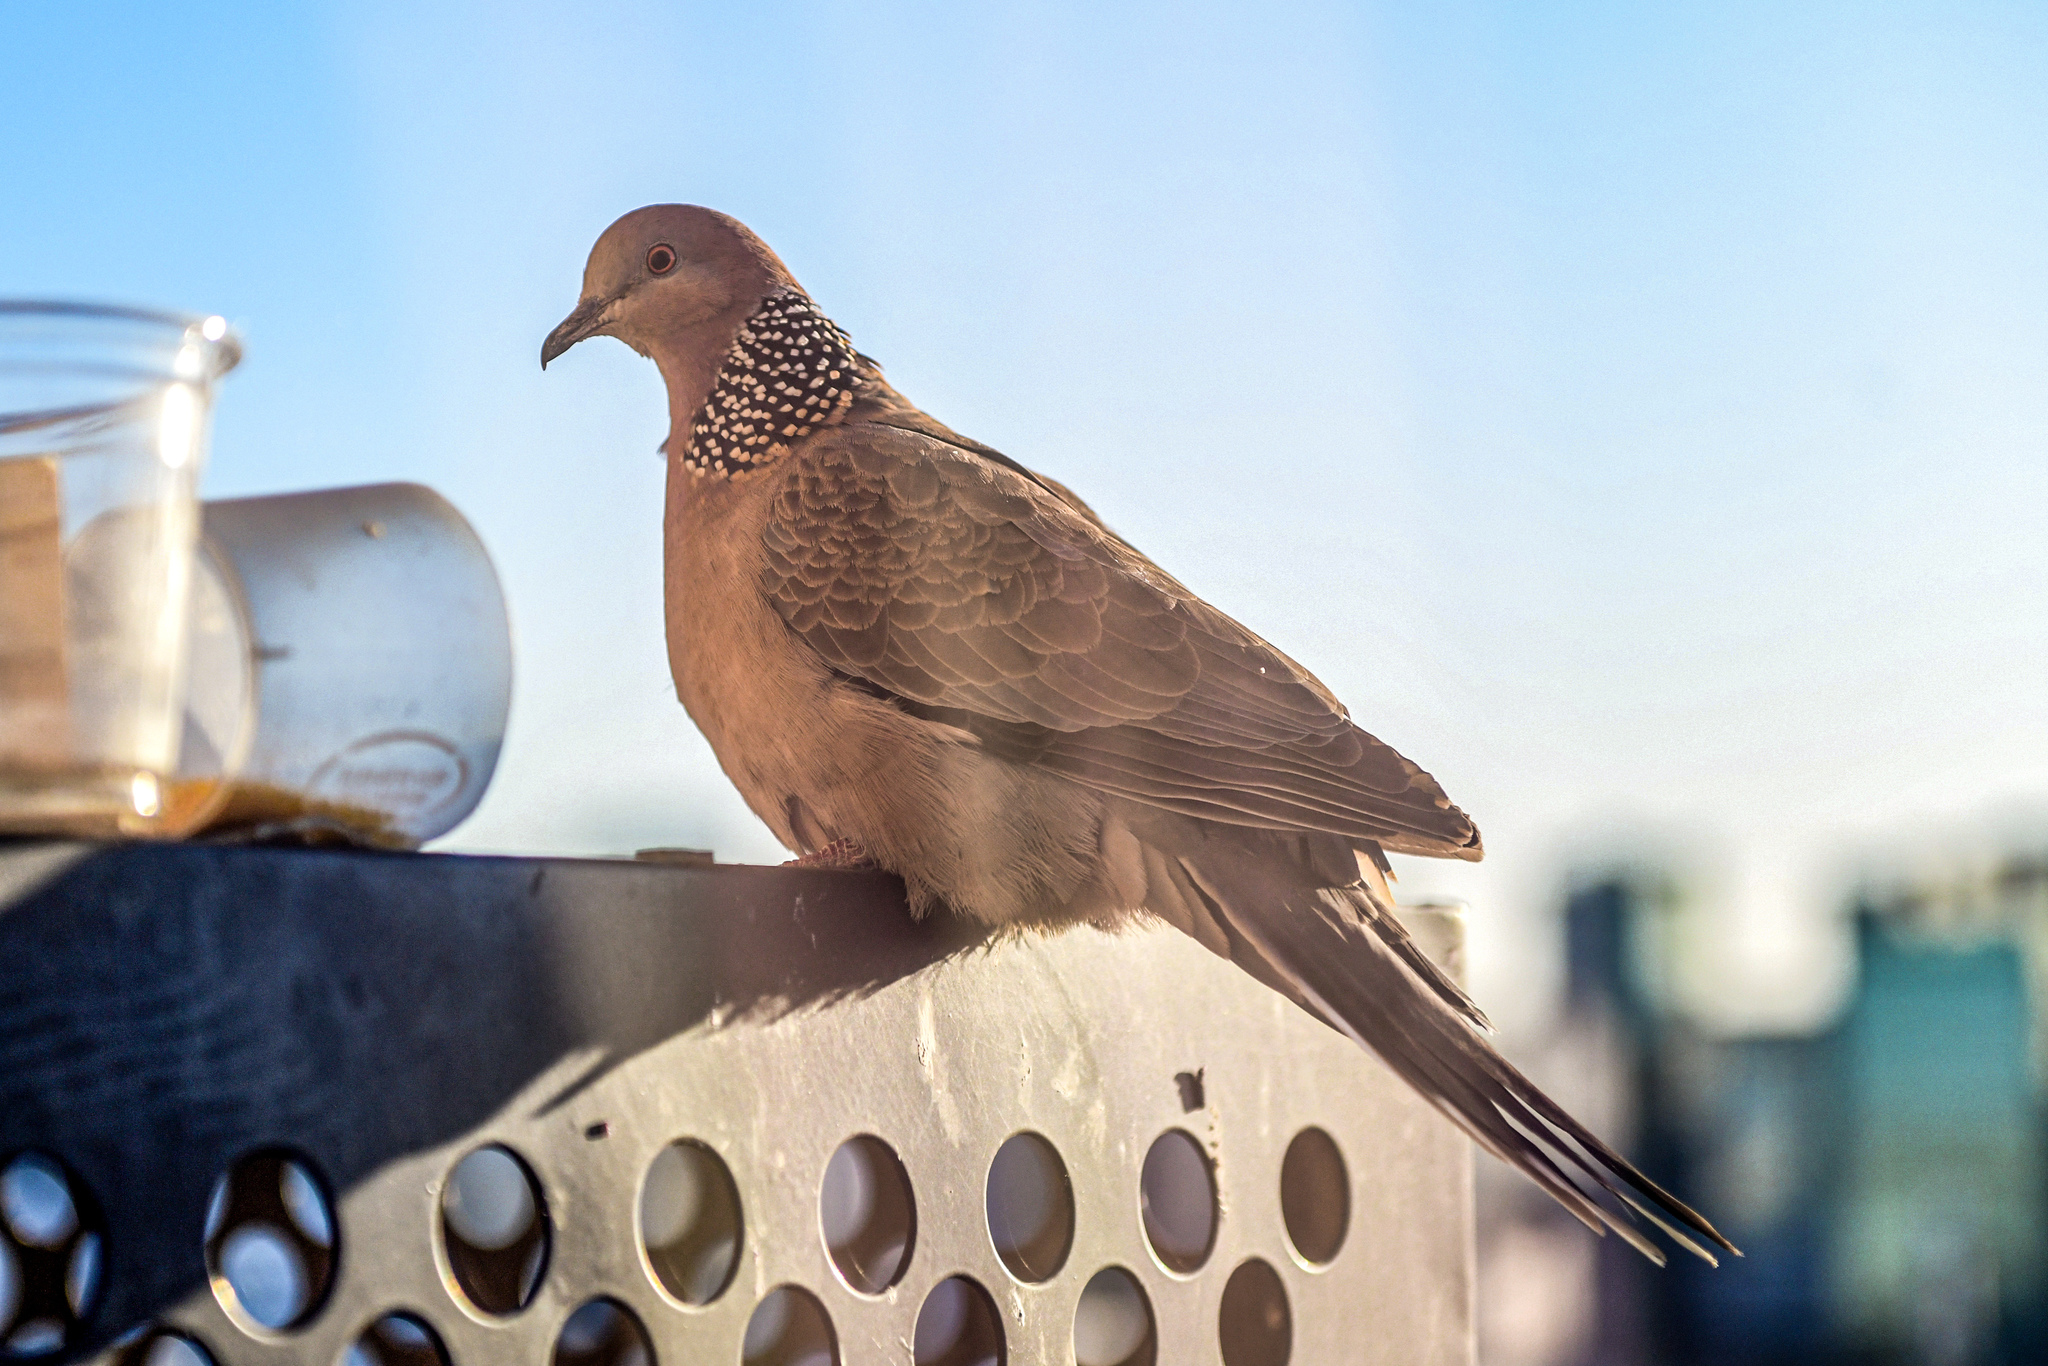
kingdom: Animalia
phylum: Chordata
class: Aves
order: Columbiformes
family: Columbidae
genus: Spilopelia
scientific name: Spilopelia chinensis
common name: Spotted dove
